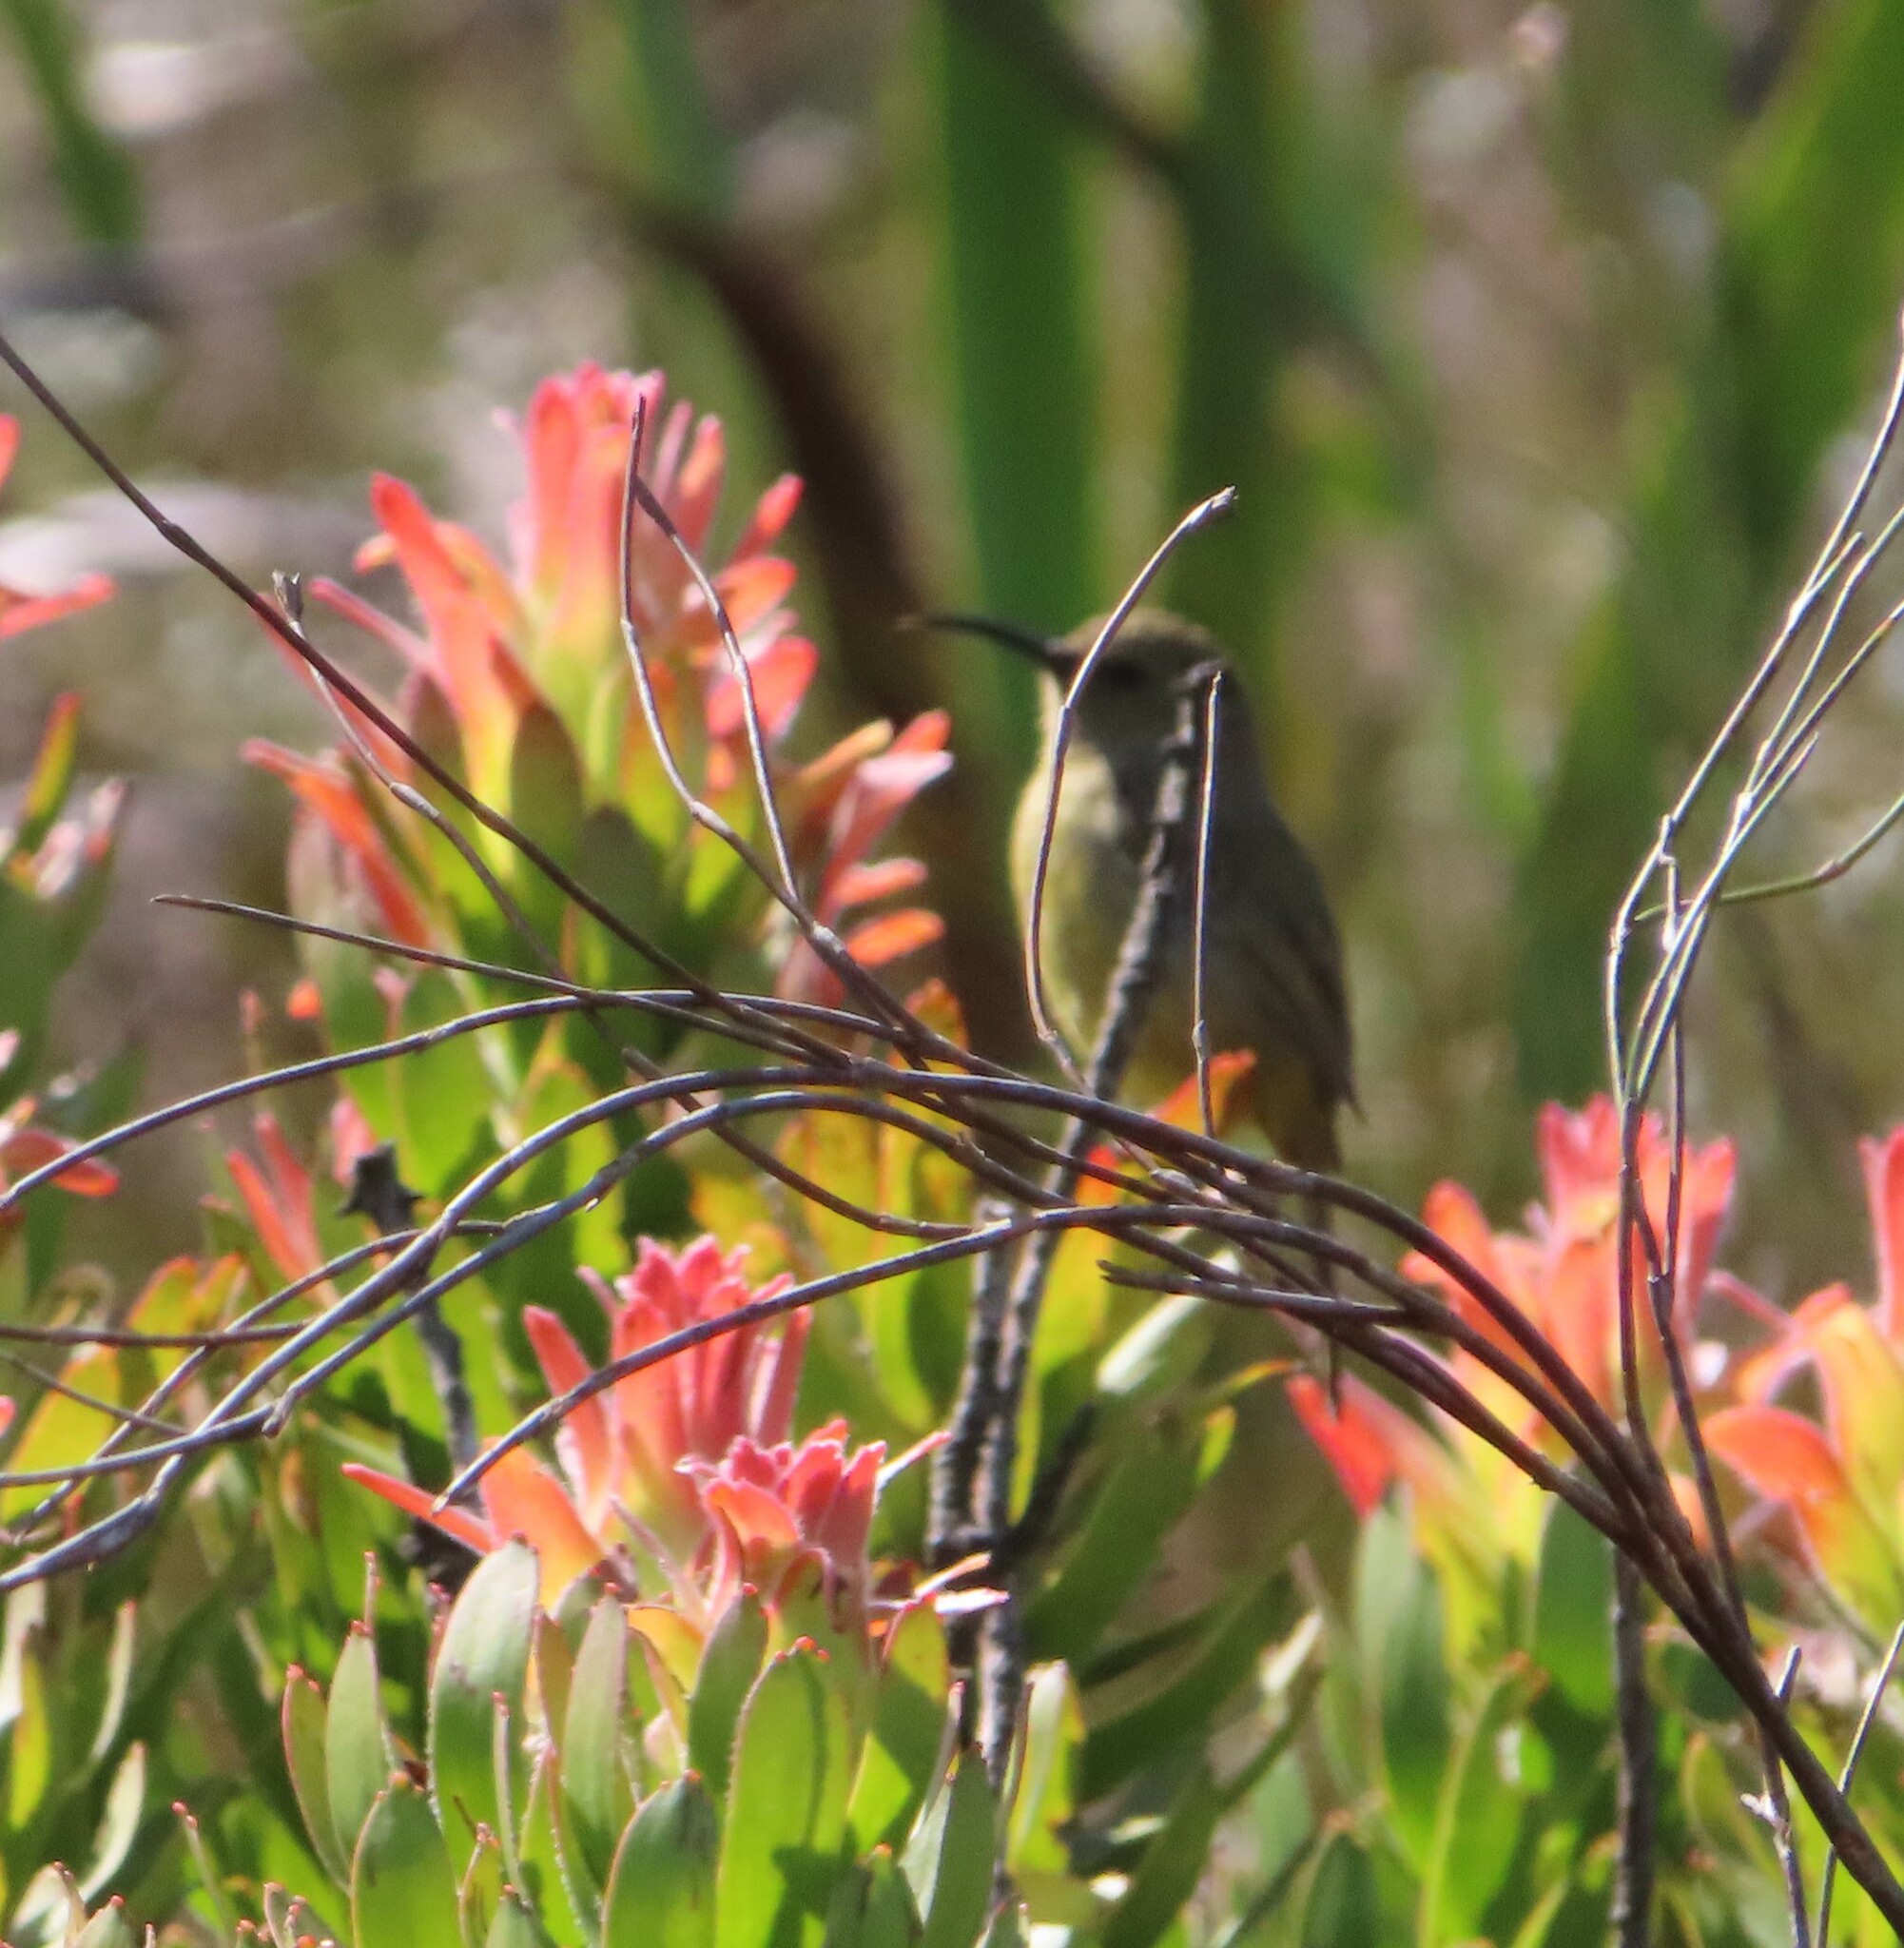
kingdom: Animalia
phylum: Chordata
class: Aves
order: Passeriformes
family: Nectariniidae
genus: Anthobaphes
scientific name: Anthobaphes violacea
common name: Orange-breasted sunbird
